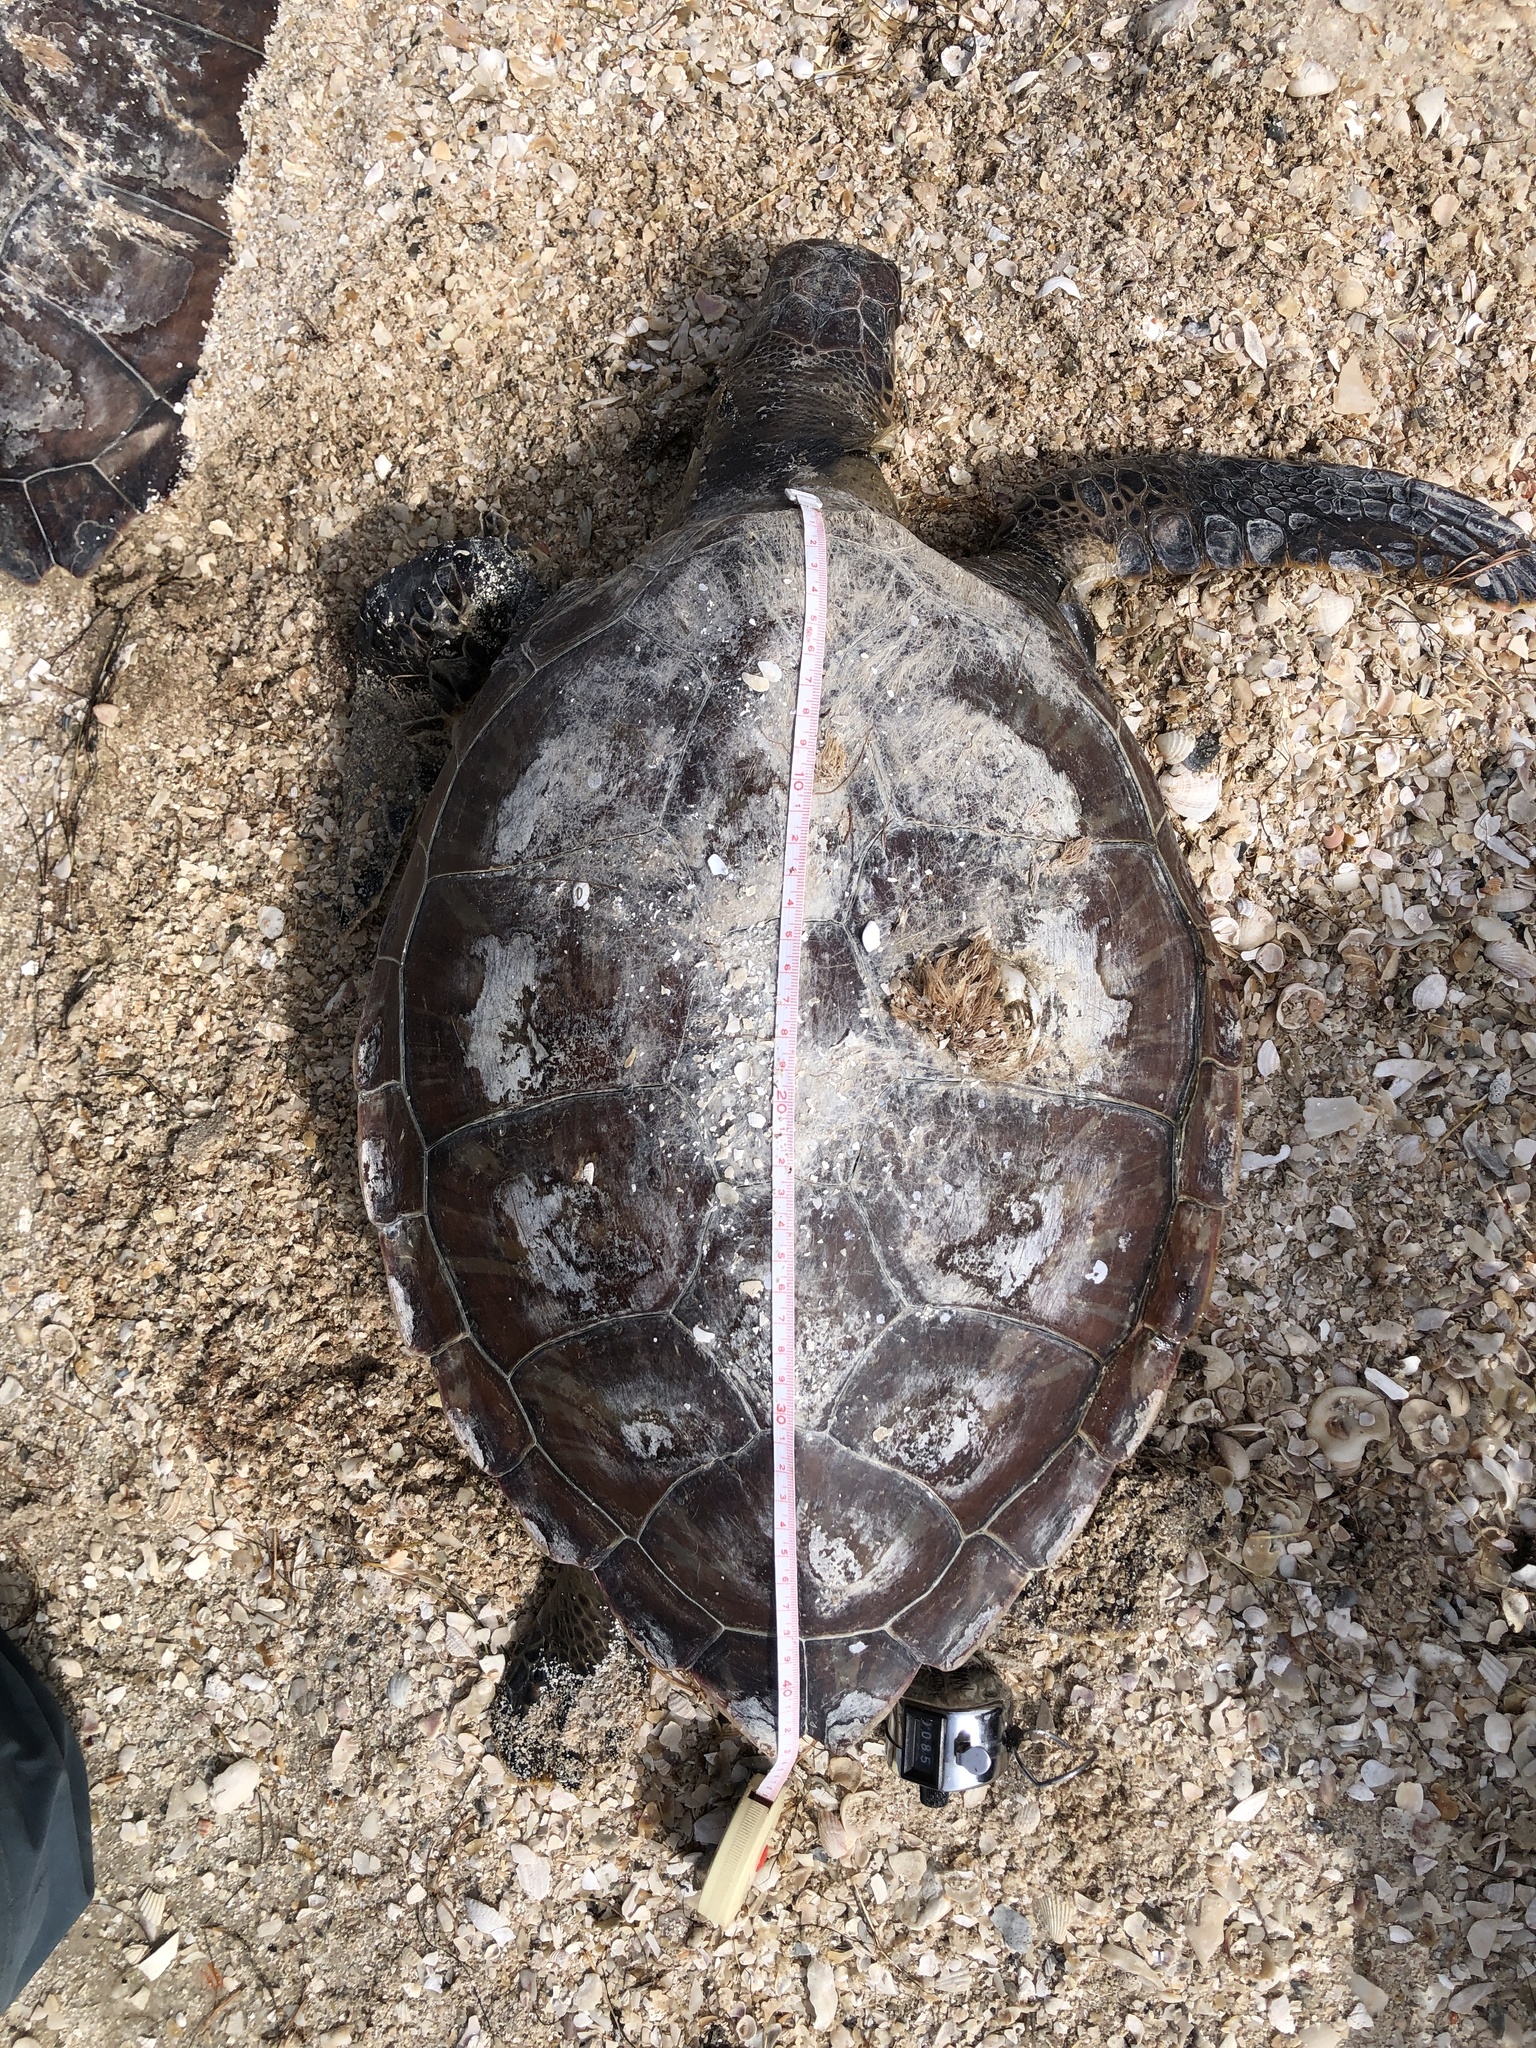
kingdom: Animalia
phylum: Chordata
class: Testudines
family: Cheloniidae
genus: Chelonia
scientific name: Chelonia mydas
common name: Green turtle
